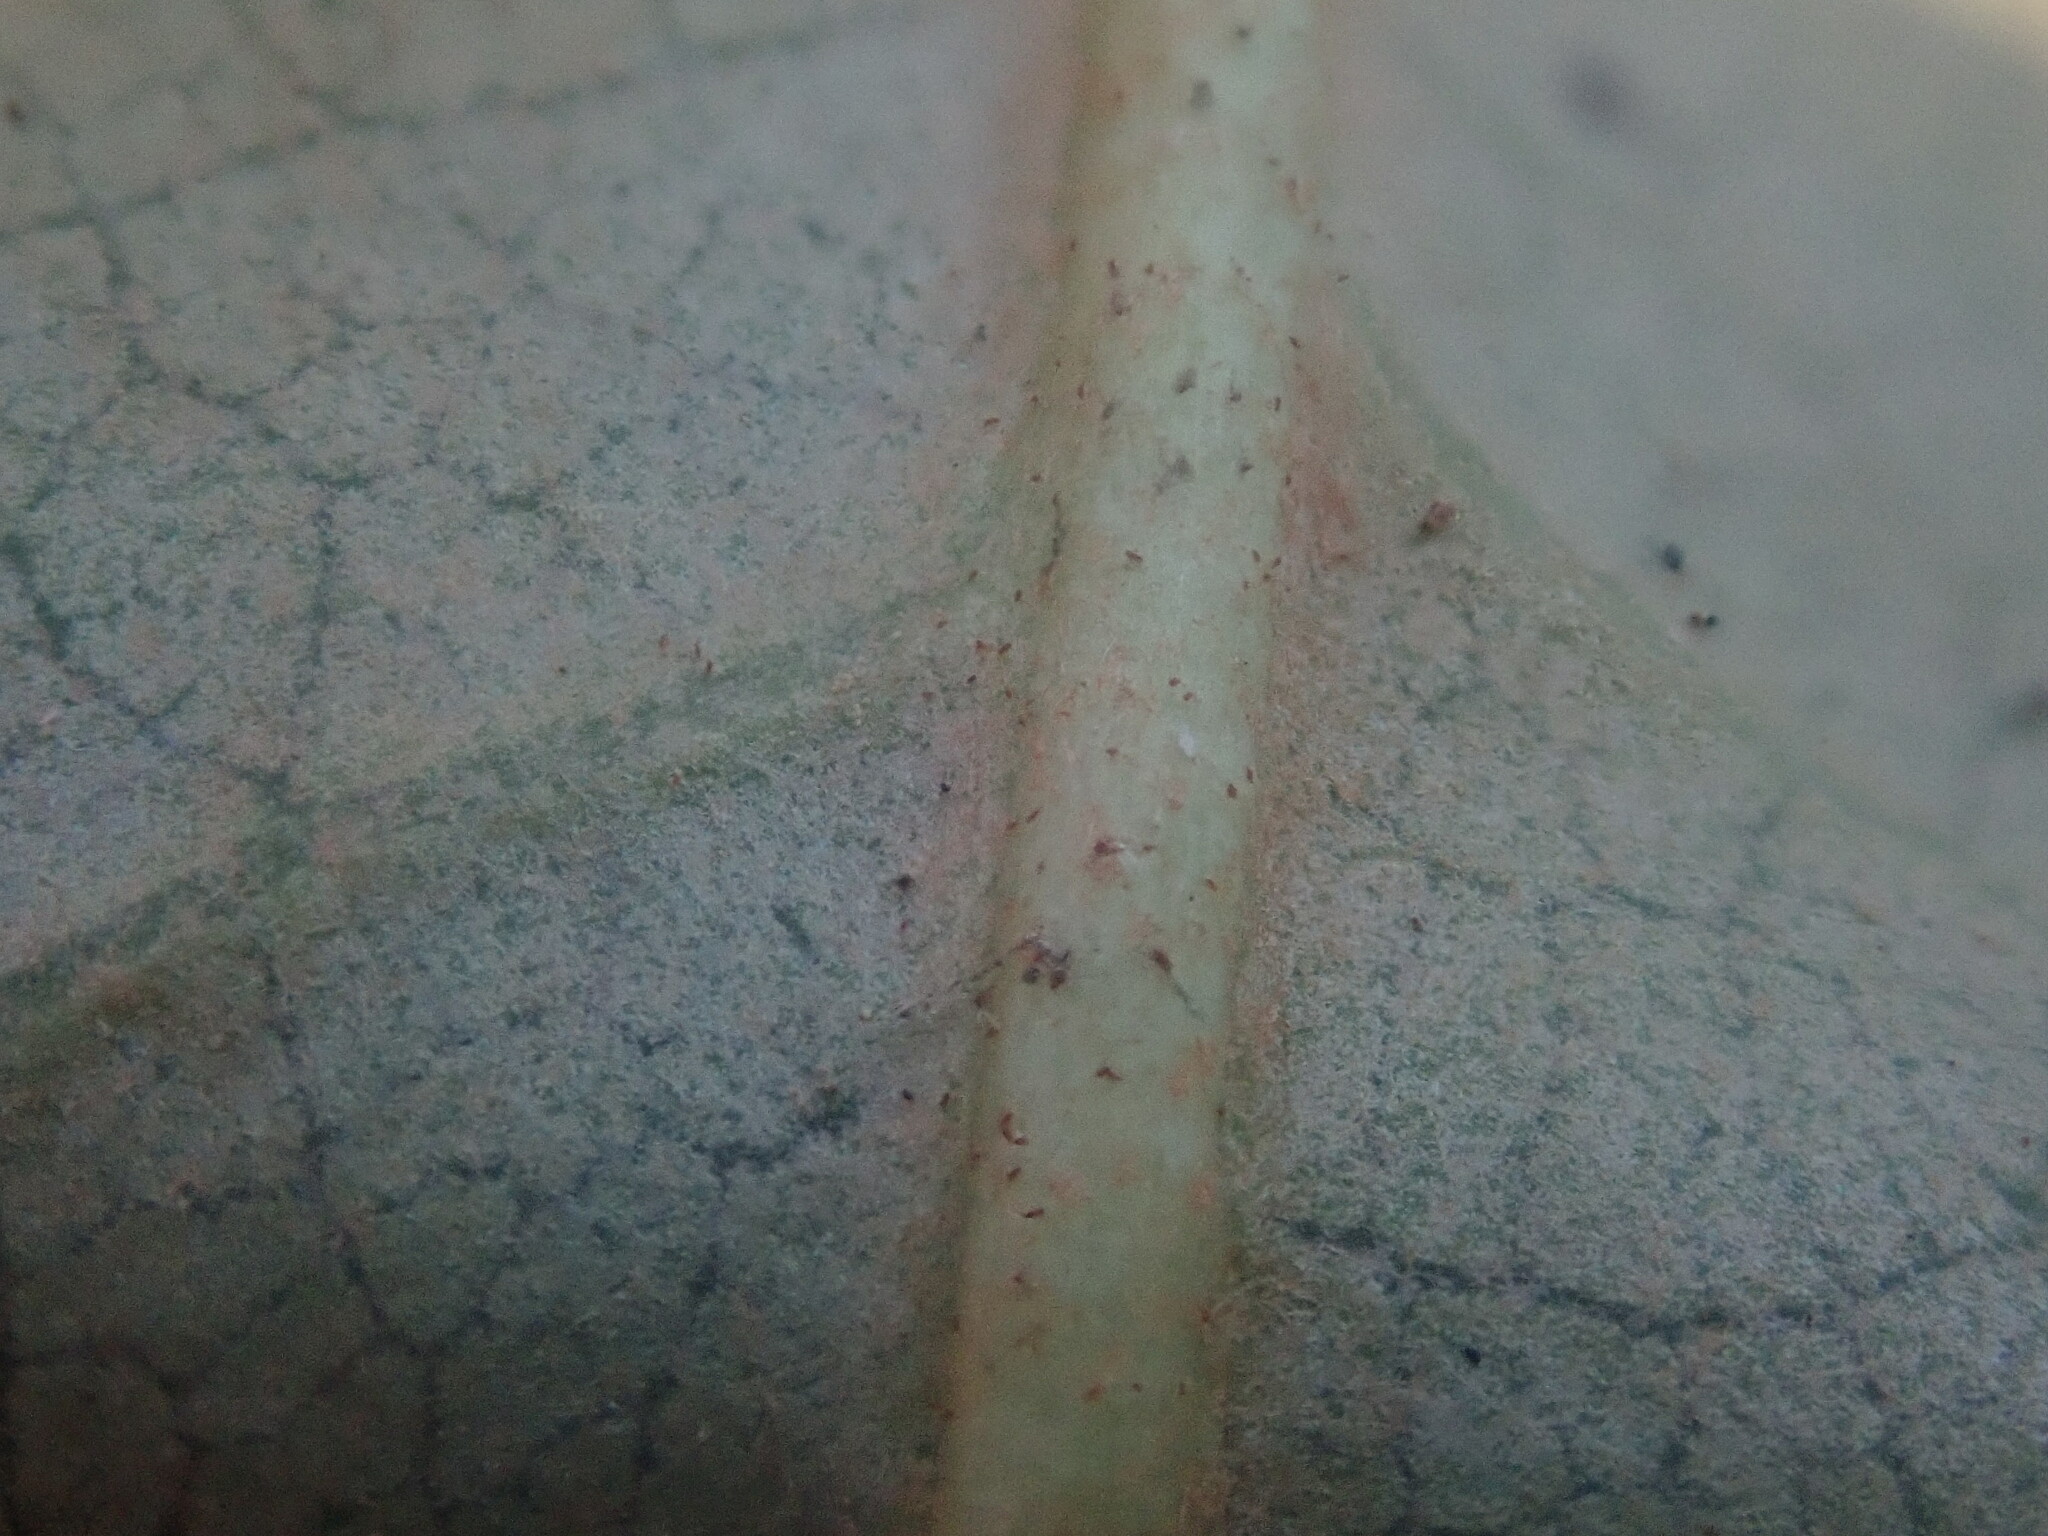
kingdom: Plantae
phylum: Tracheophyta
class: Magnoliopsida
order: Ericales
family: Ericaceae
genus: Rhododendron
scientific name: Rhododendron maximum
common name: Great rhododendron
